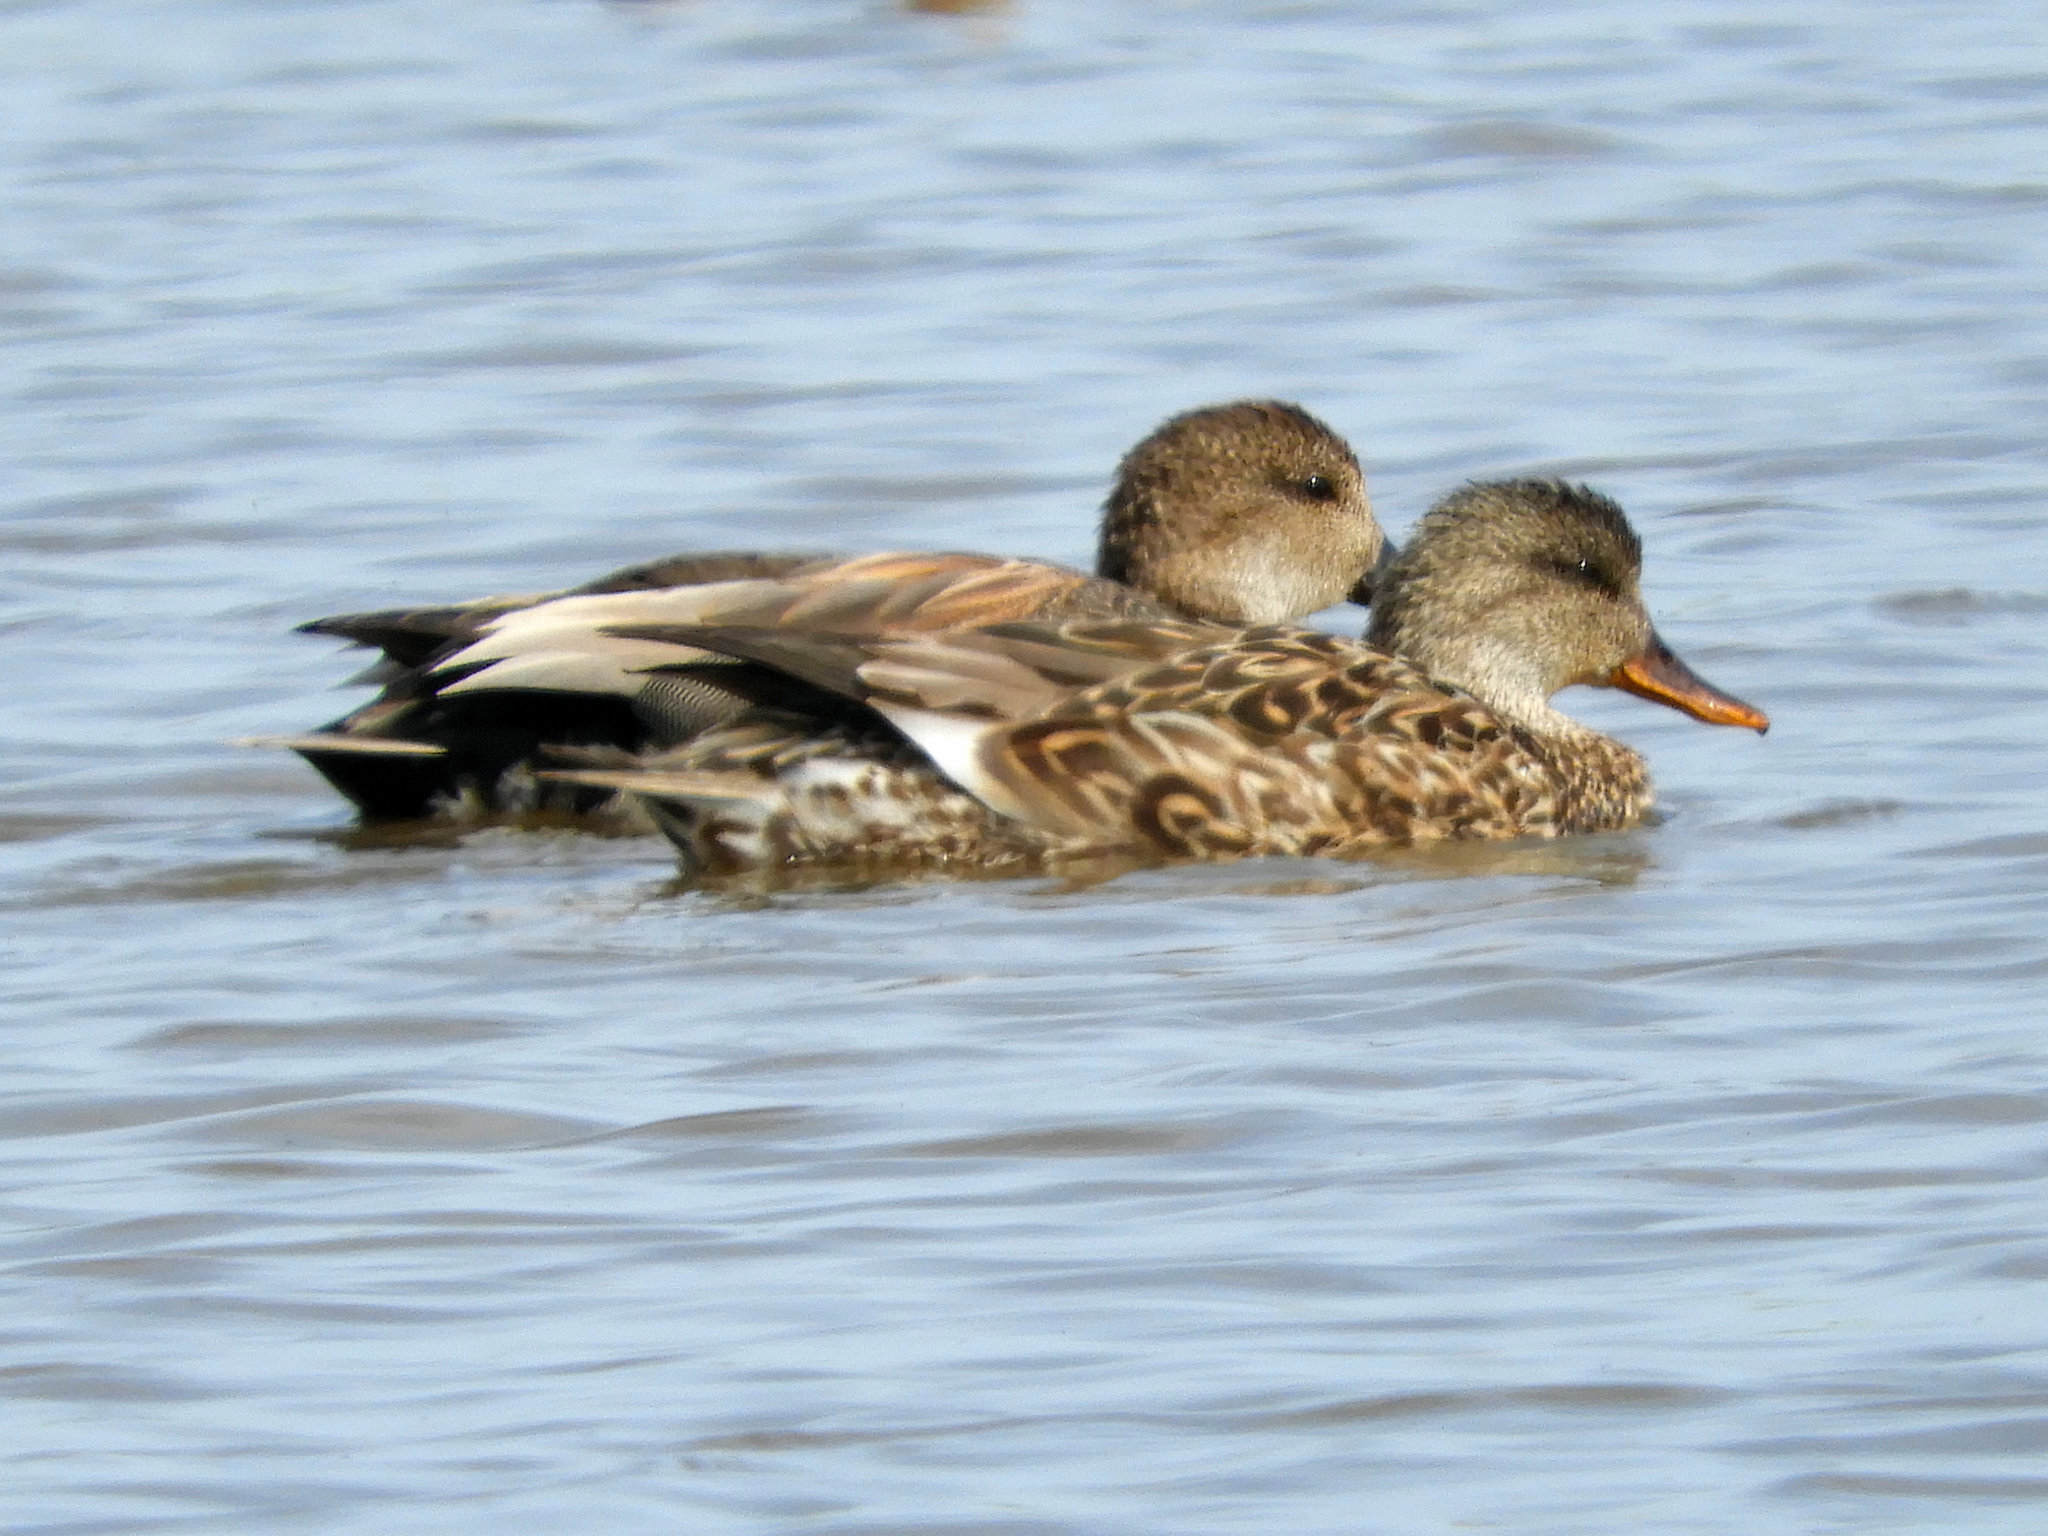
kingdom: Animalia
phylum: Chordata
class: Aves
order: Anseriformes
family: Anatidae
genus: Mareca
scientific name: Mareca strepera
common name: Gadwall
